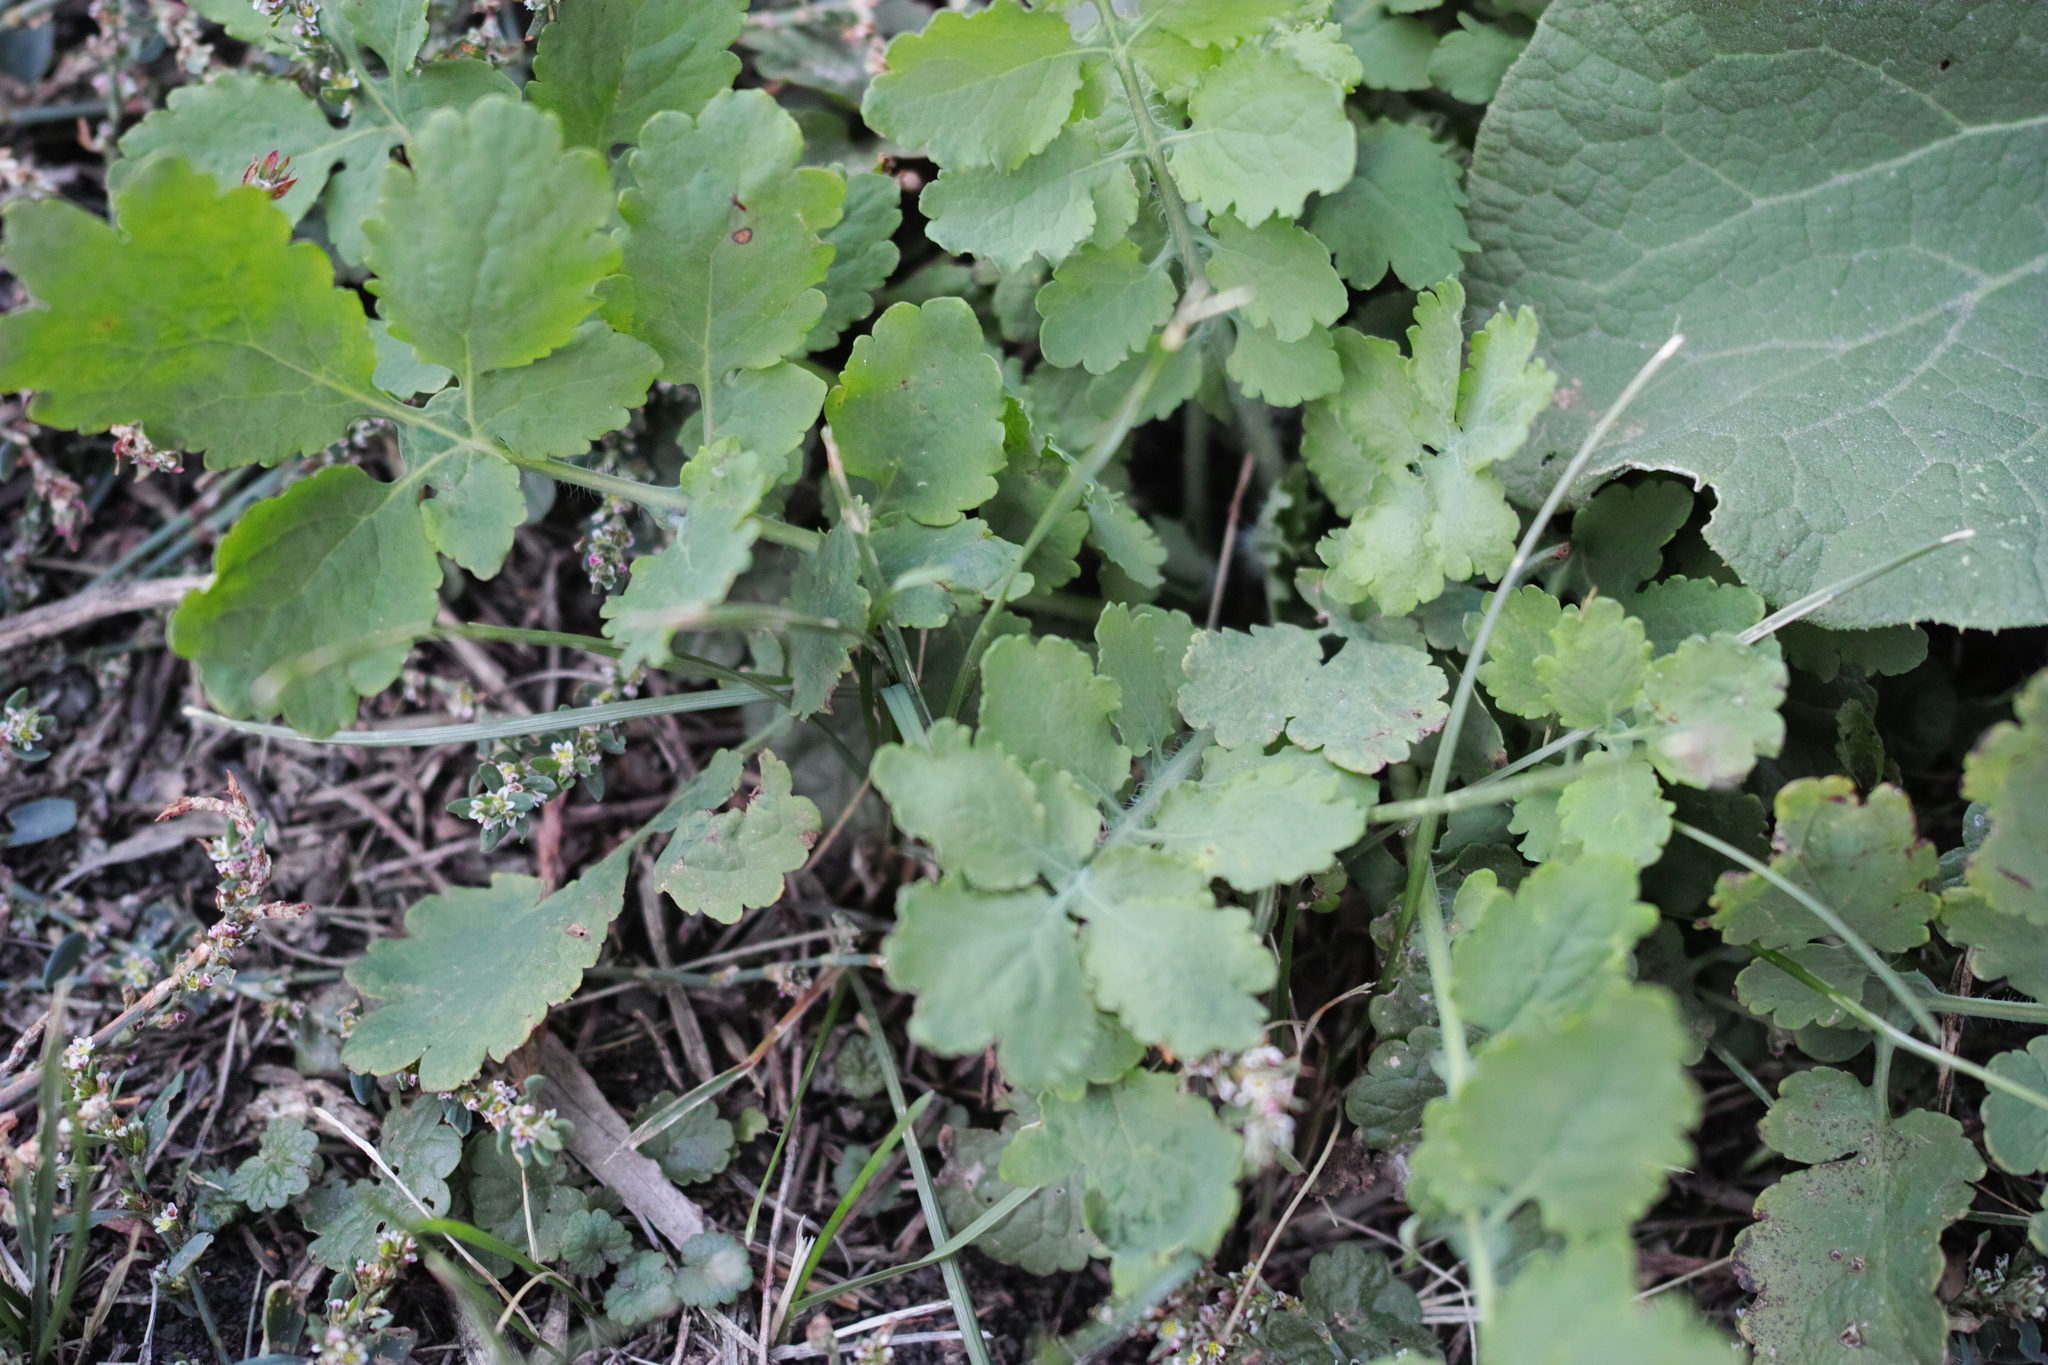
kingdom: Plantae
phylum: Tracheophyta
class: Magnoliopsida
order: Ranunculales
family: Papaveraceae
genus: Chelidonium
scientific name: Chelidonium majus
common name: Greater celandine
